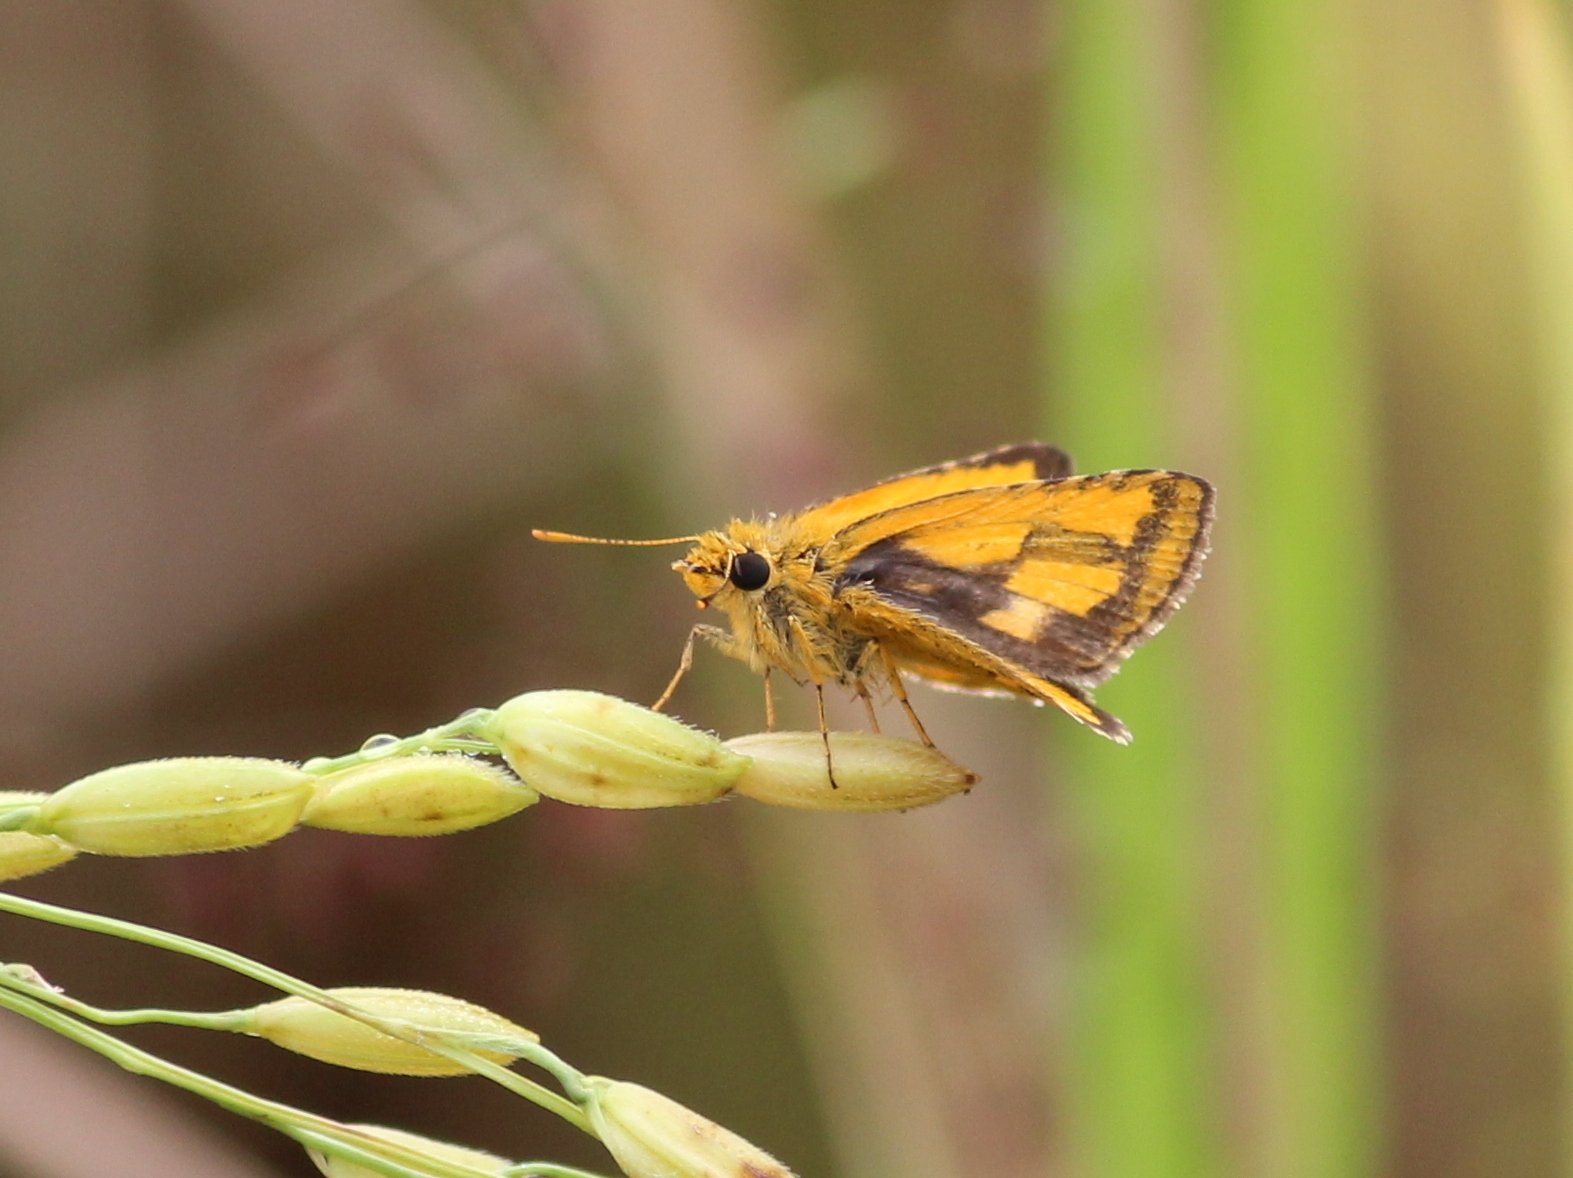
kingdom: Animalia
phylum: Arthropoda
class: Insecta
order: Lepidoptera
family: Hesperiidae
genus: Ampittia
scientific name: Ampittia dioscorides
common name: Common bush hopper
